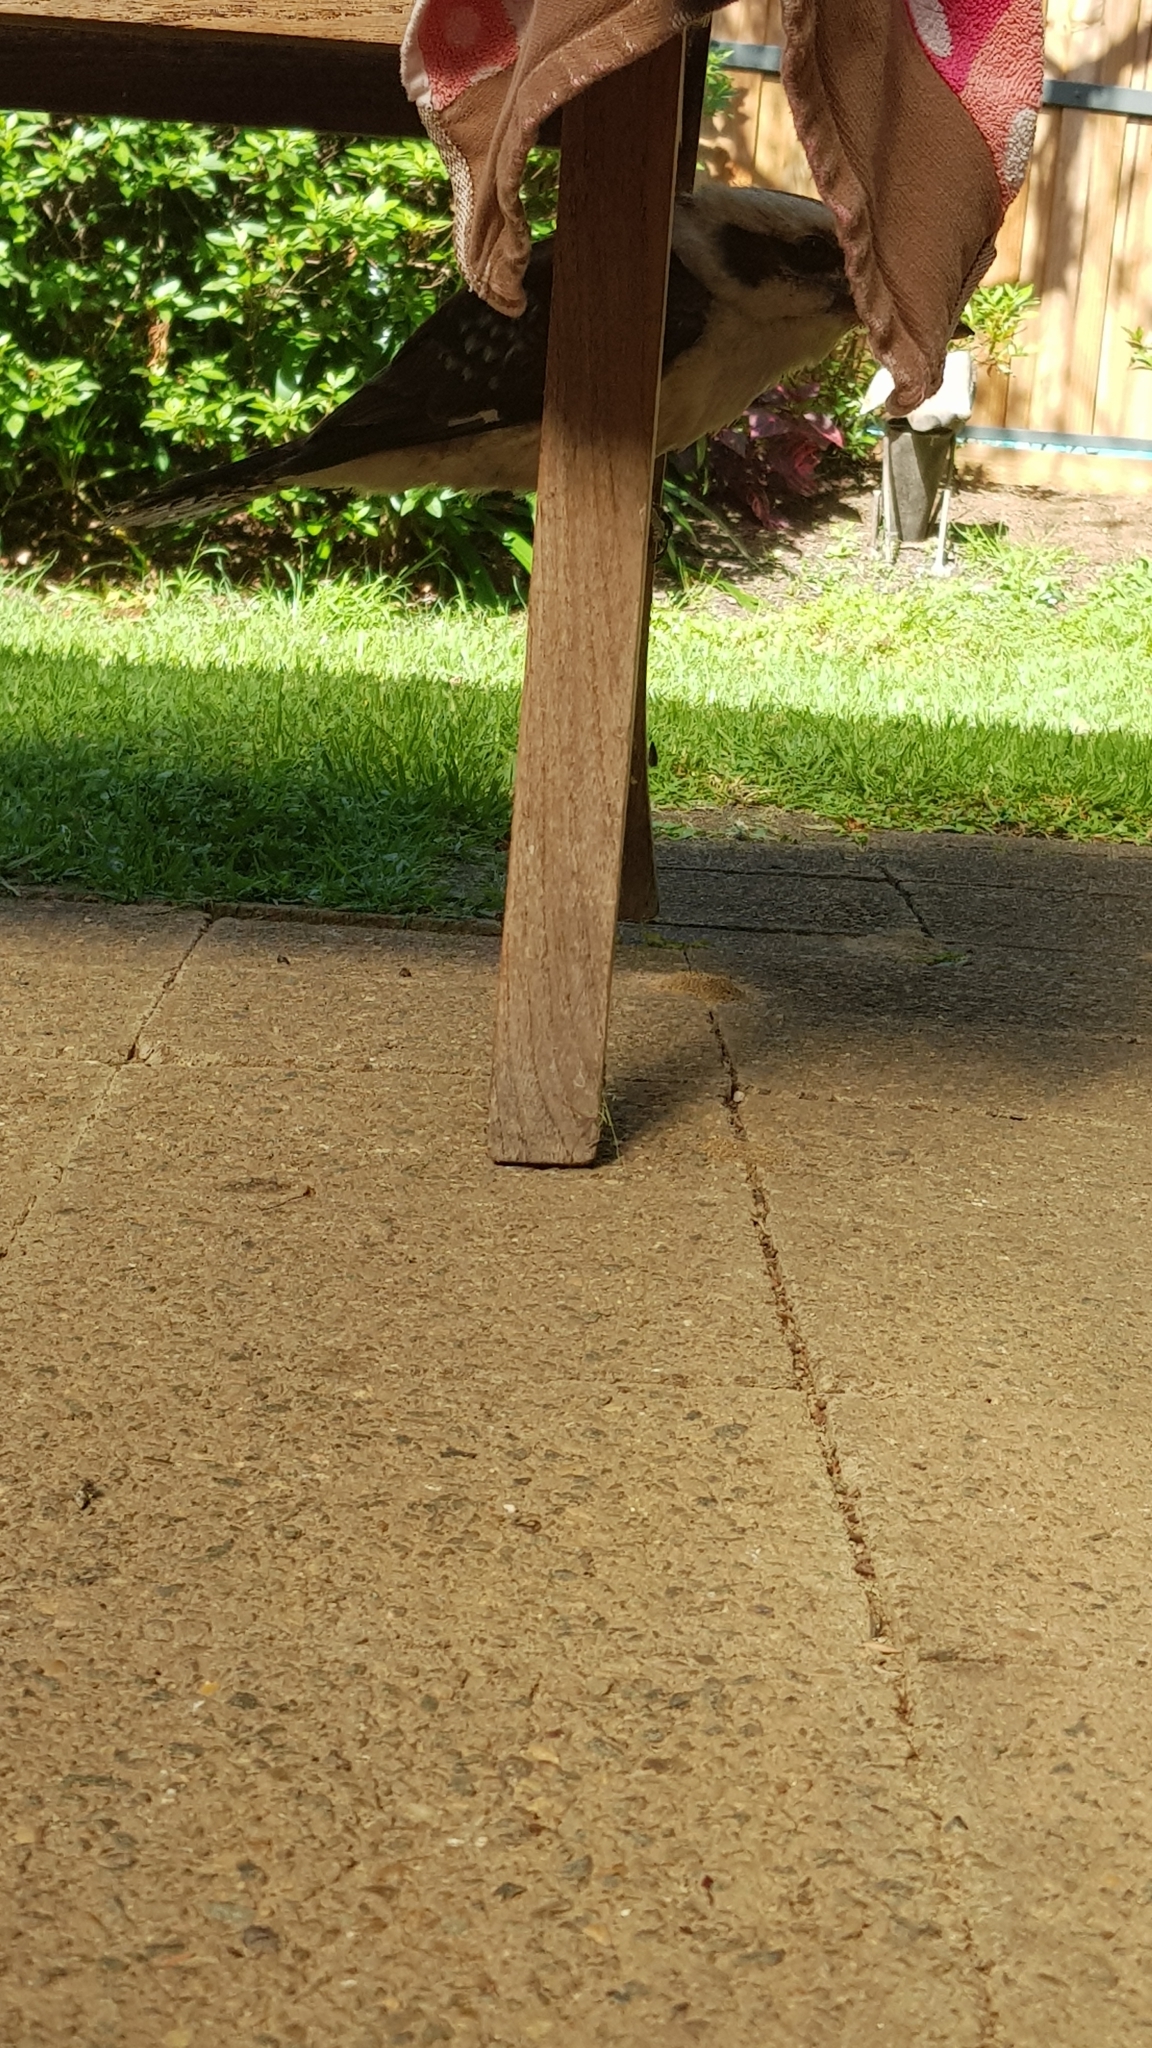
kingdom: Animalia
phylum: Chordata
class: Aves
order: Coraciiformes
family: Alcedinidae
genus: Dacelo
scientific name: Dacelo novaeguineae
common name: Laughing kookaburra
